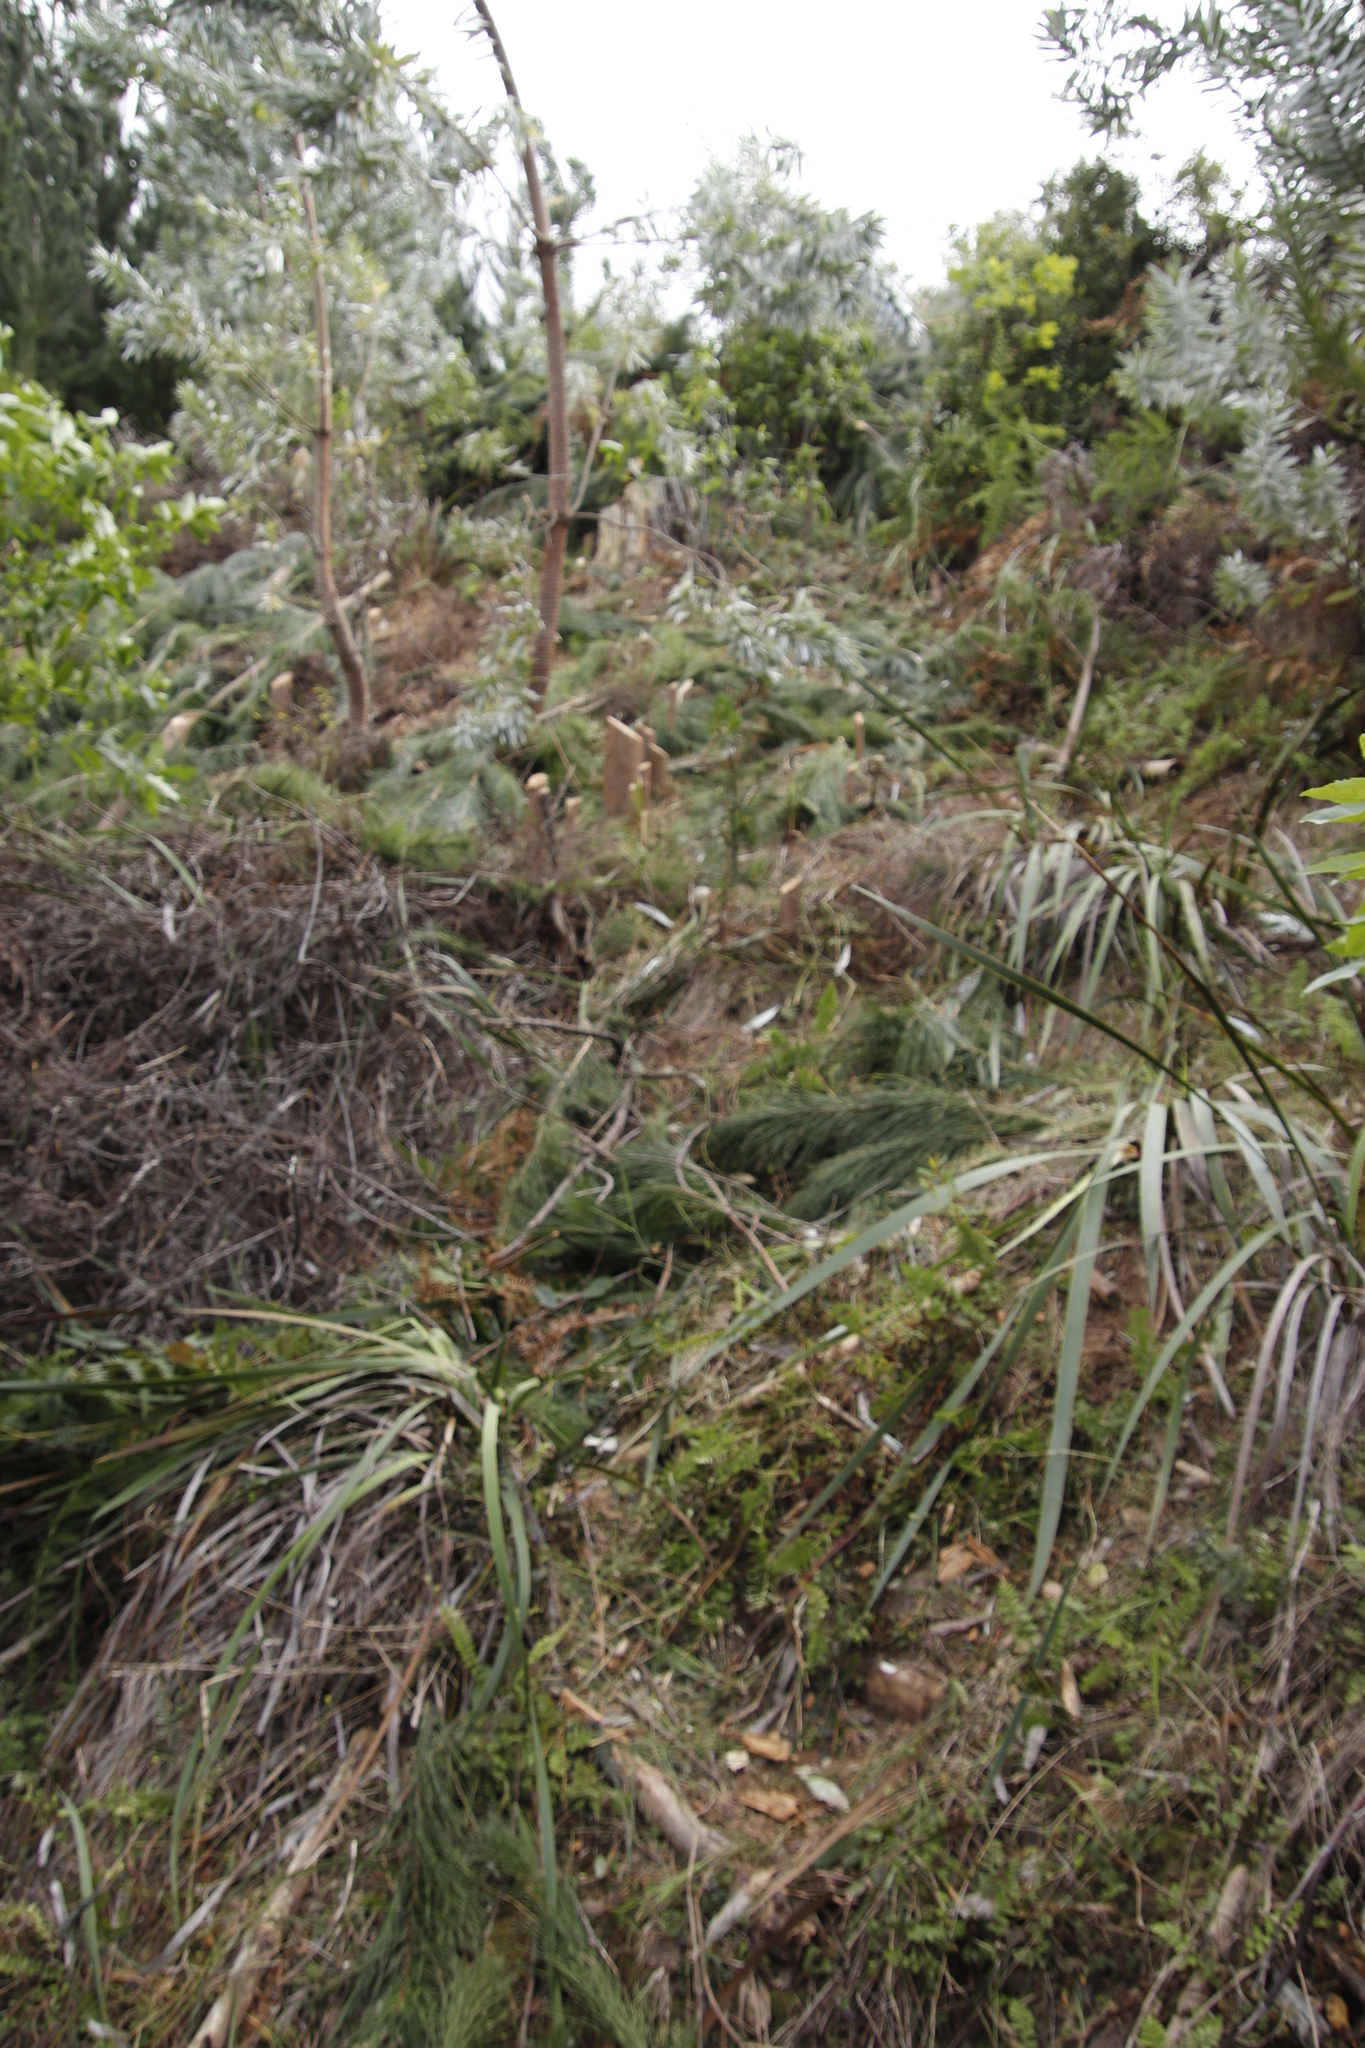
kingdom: Plantae
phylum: Tracheophyta
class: Pinopsida
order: Pinales
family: Pinaceae
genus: Pinus
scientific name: Pinus radiata
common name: Monterey pine
